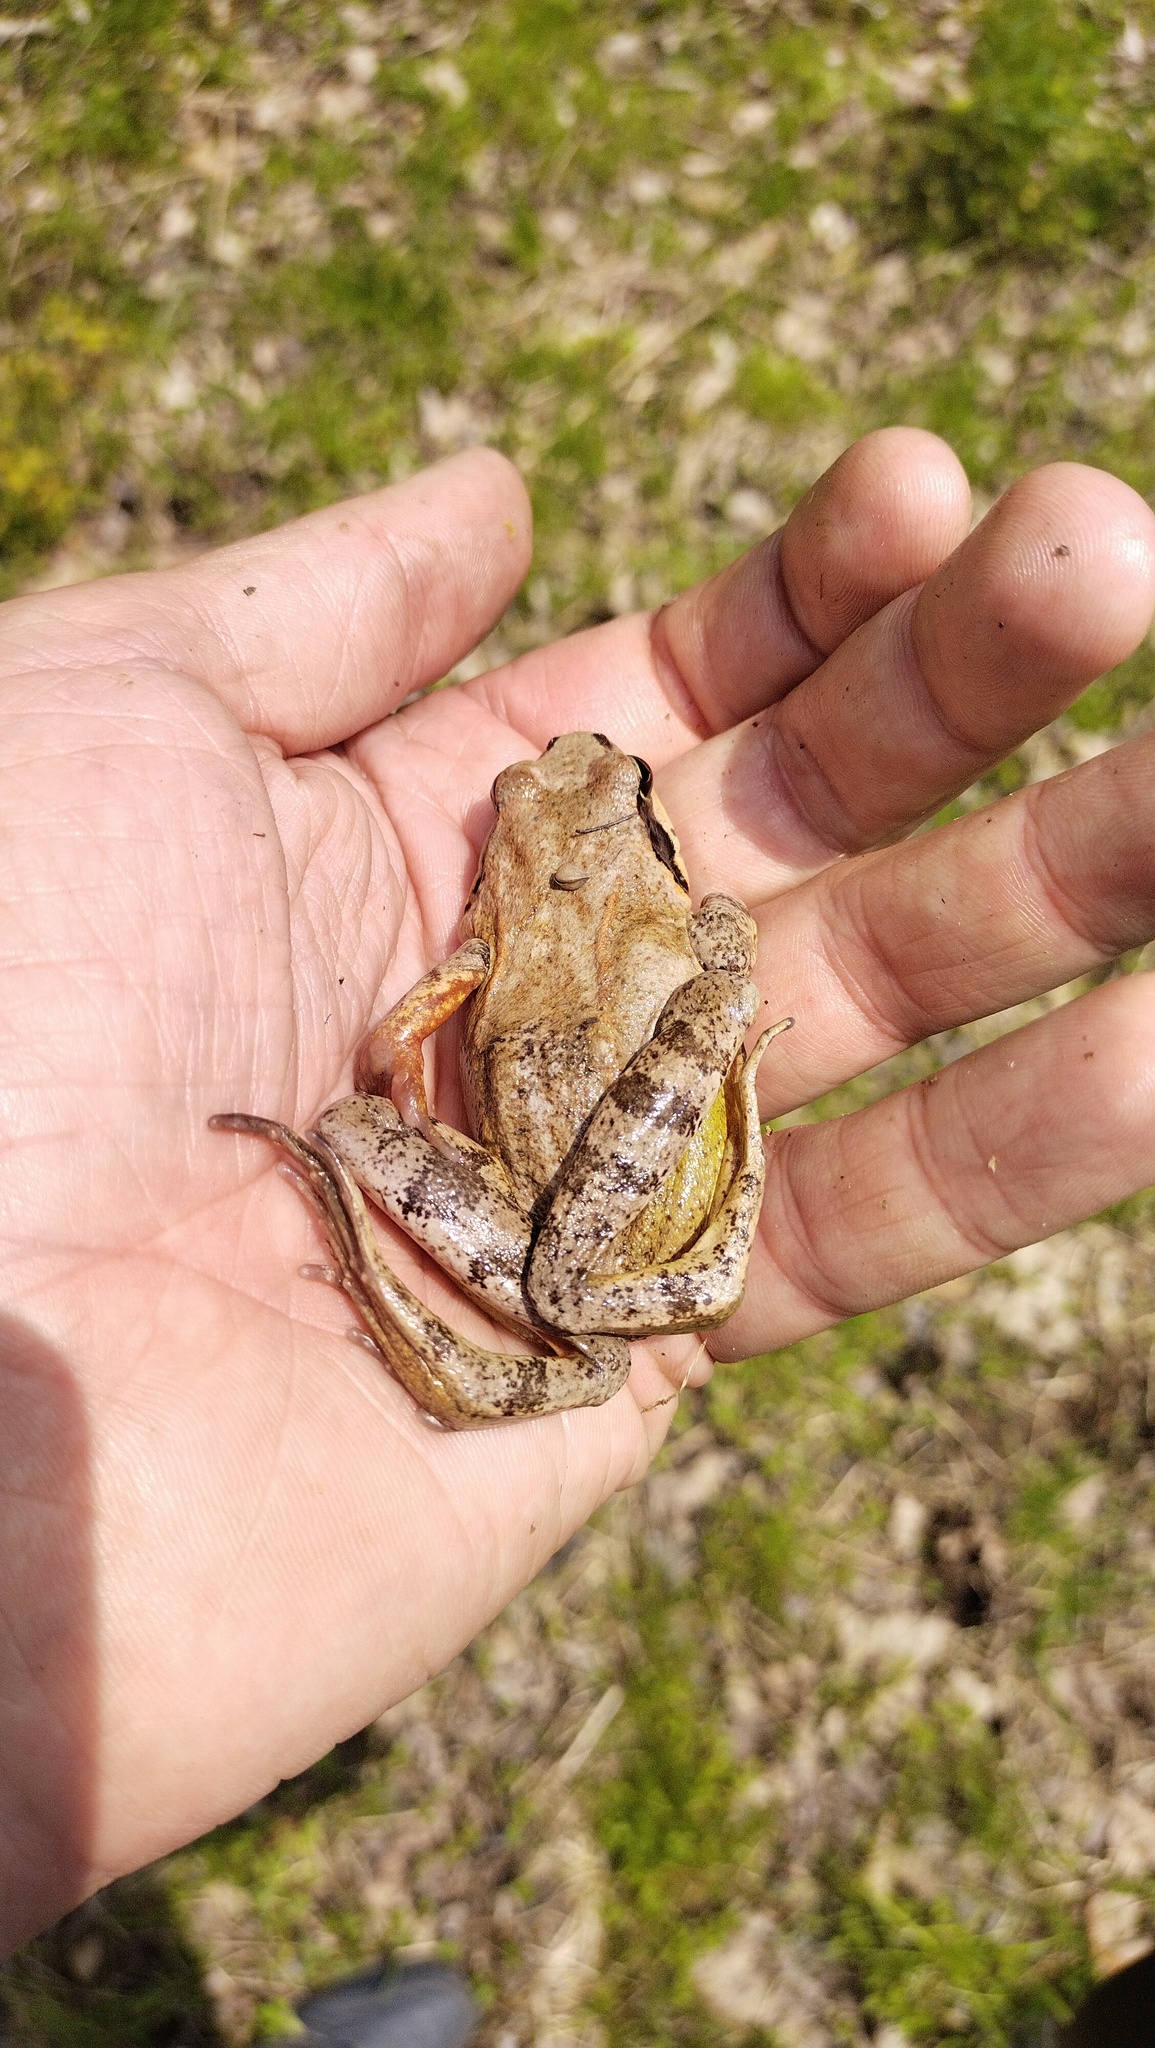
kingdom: Animalia
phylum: Chordata
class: Amphibia
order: Anura
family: Ranidae
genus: Rana
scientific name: Rana dybowskii
